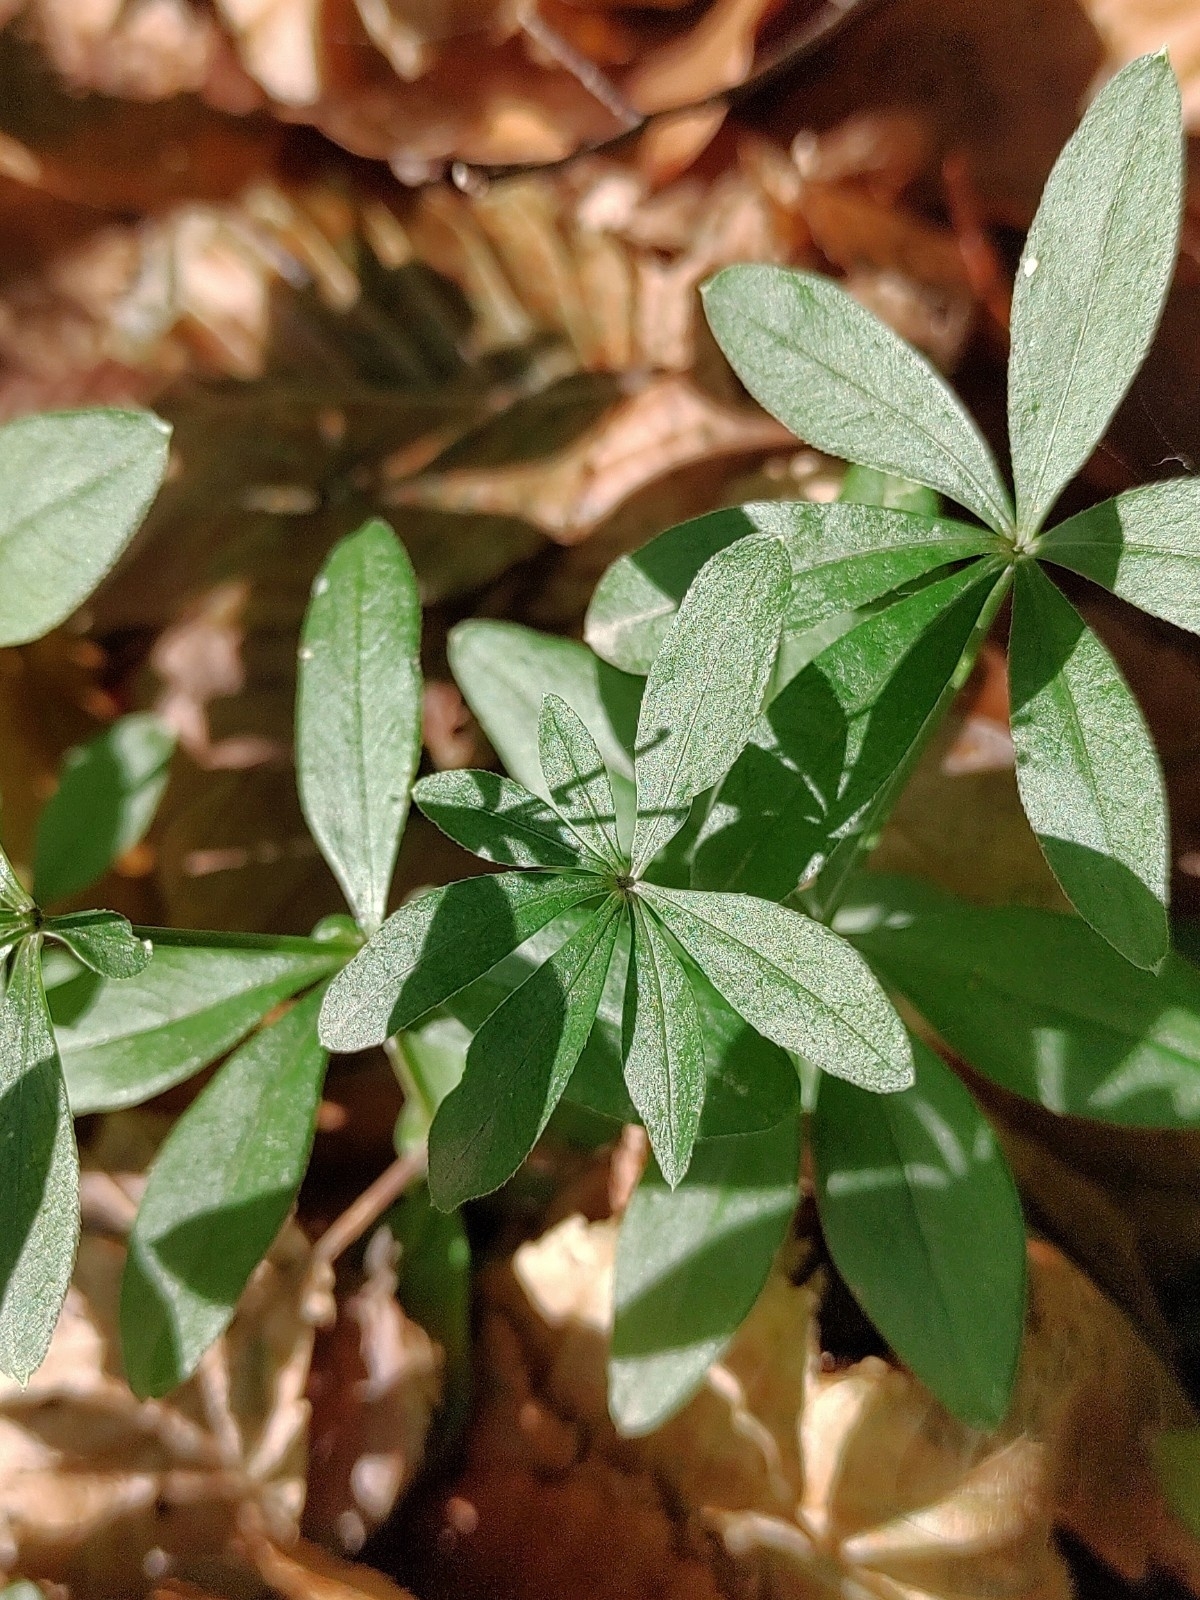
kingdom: Plantae
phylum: Tracheophyta
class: Magnoliopsida
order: Gentianales
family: Rubiaceae
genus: Galium
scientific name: Galium odoratum
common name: Sweet woodruff
